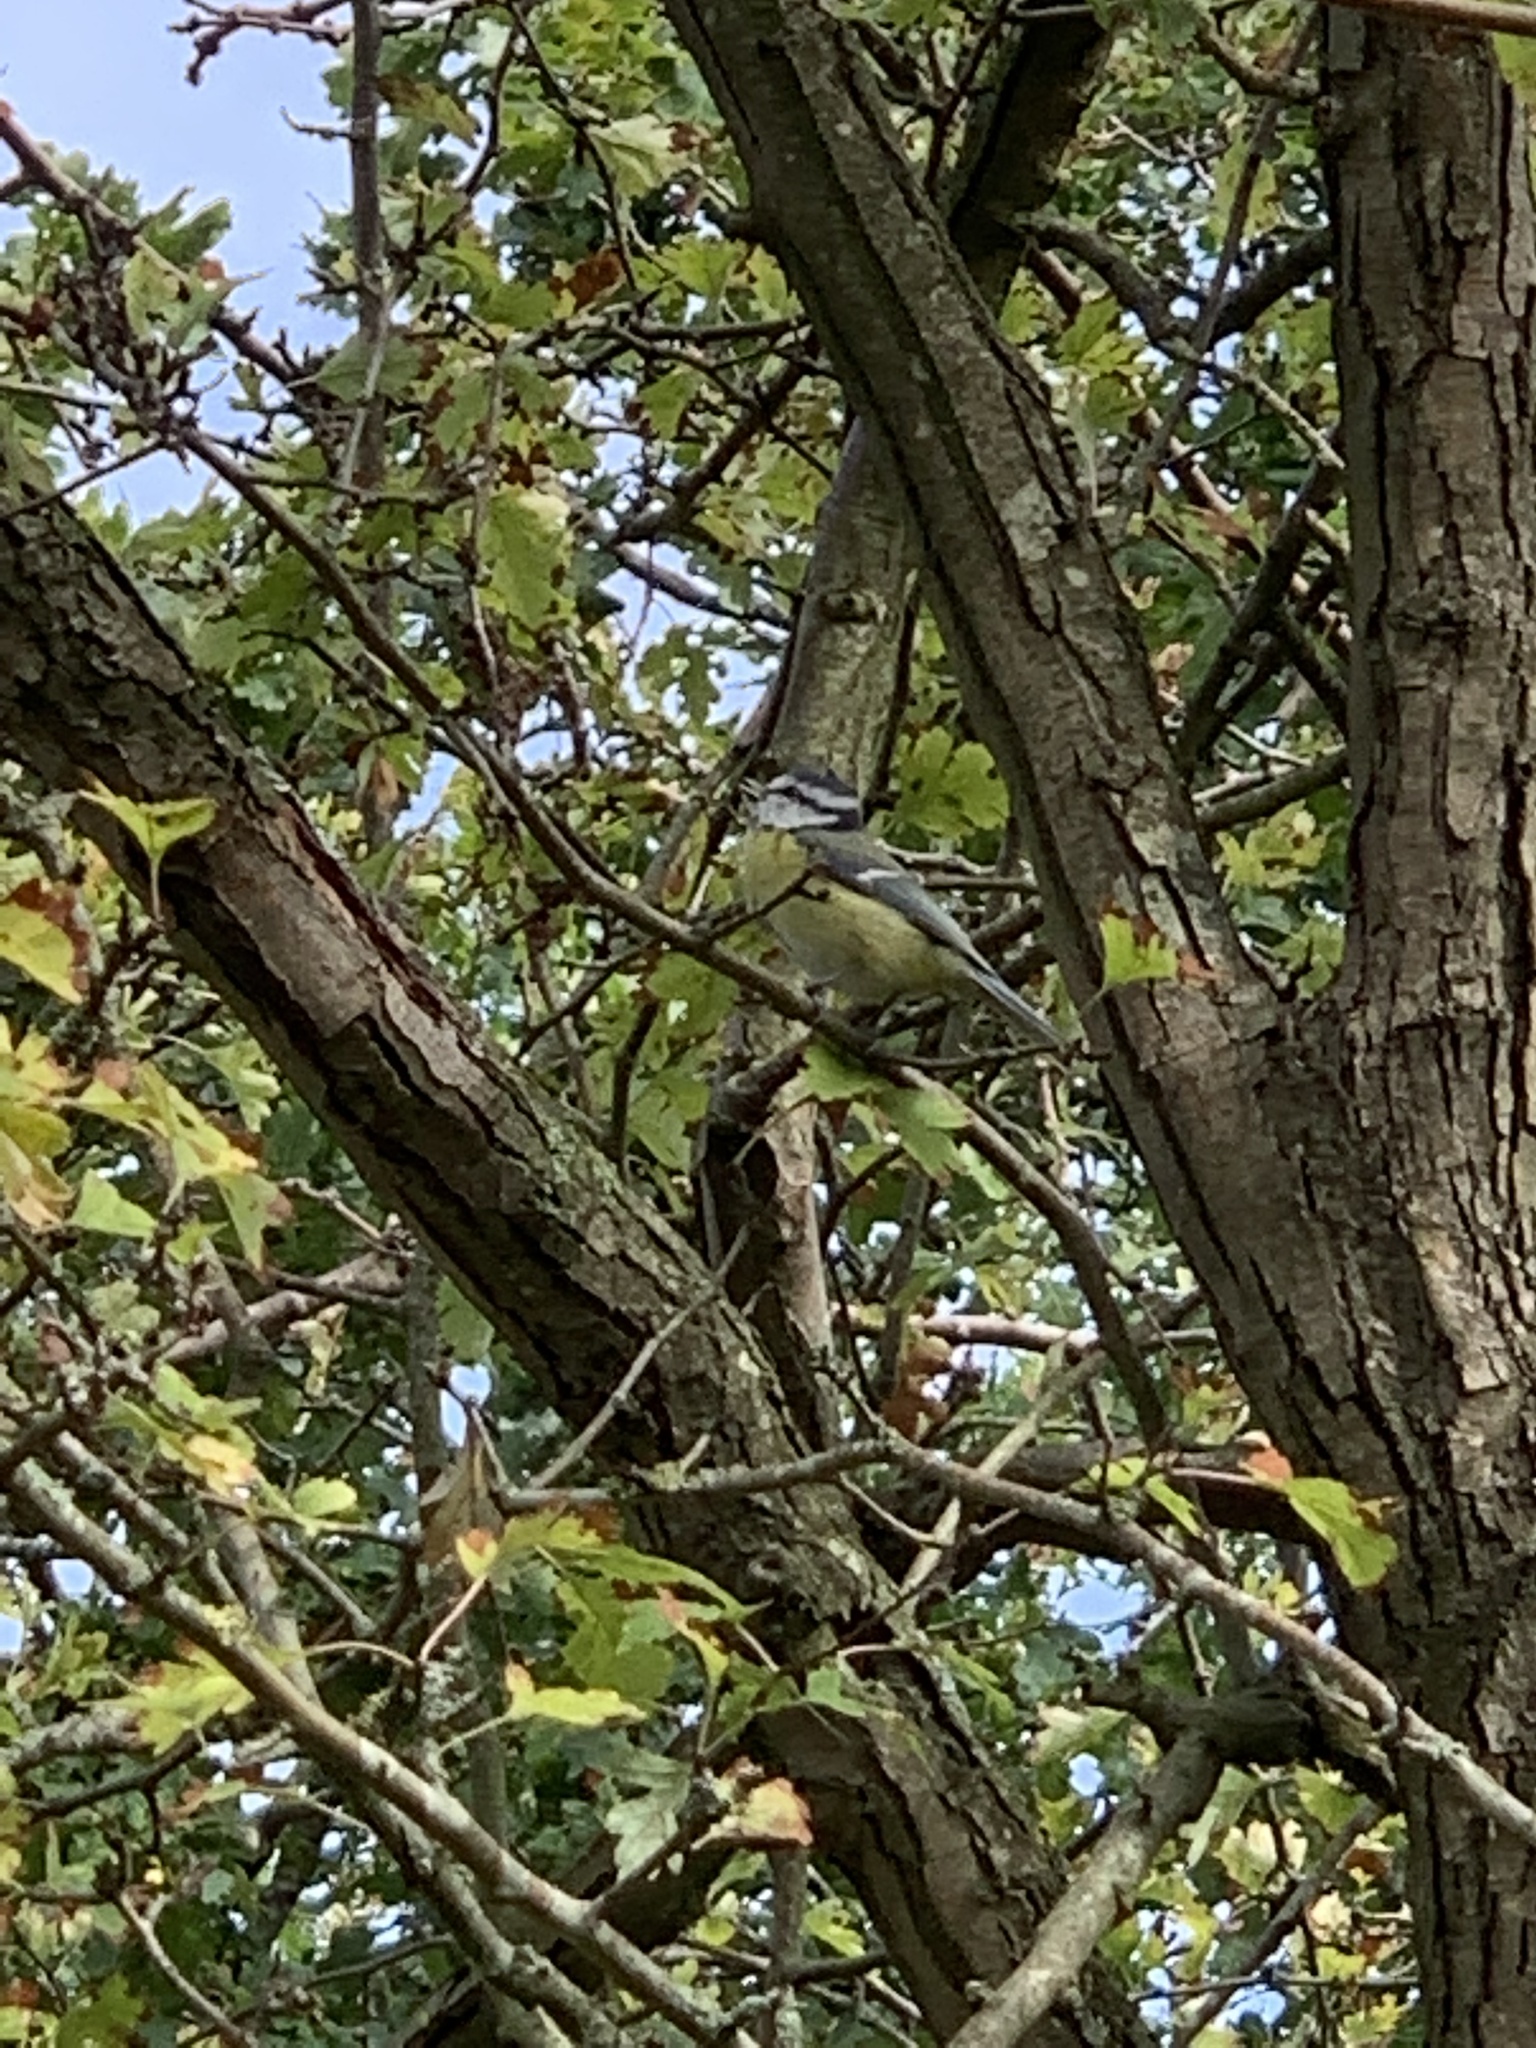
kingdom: Animalia
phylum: Chordata
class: Aves
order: Passeriformes
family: Paridae
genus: Cyanistes
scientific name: Cyanistes caeruleus
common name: Eurasian blue tit
